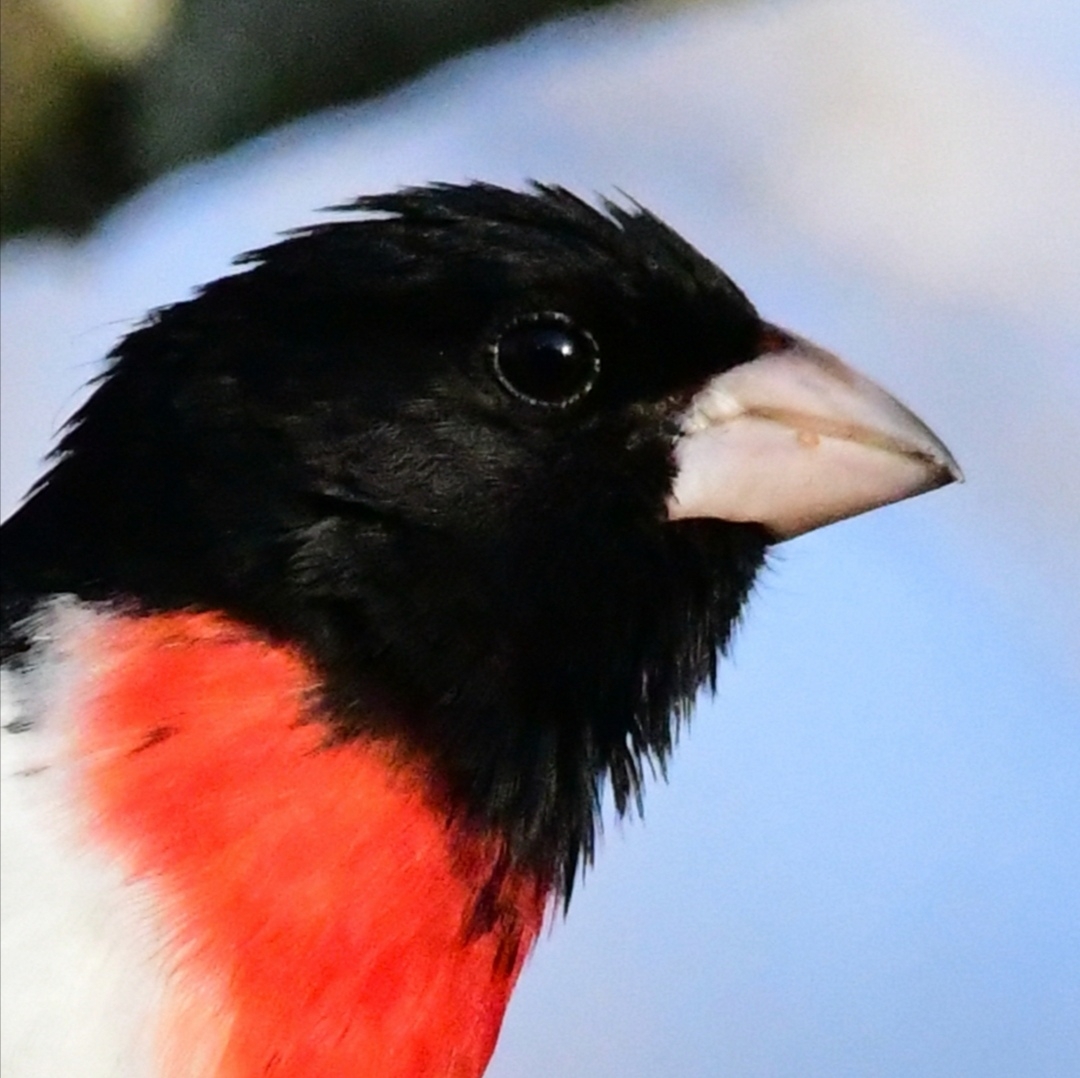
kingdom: Animalia
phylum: Chordata
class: Aves
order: Passeriformes
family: Cardinalidae
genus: Pheucticus
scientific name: Pheucticus ludovicianus
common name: Rose-breasted grosbeak
